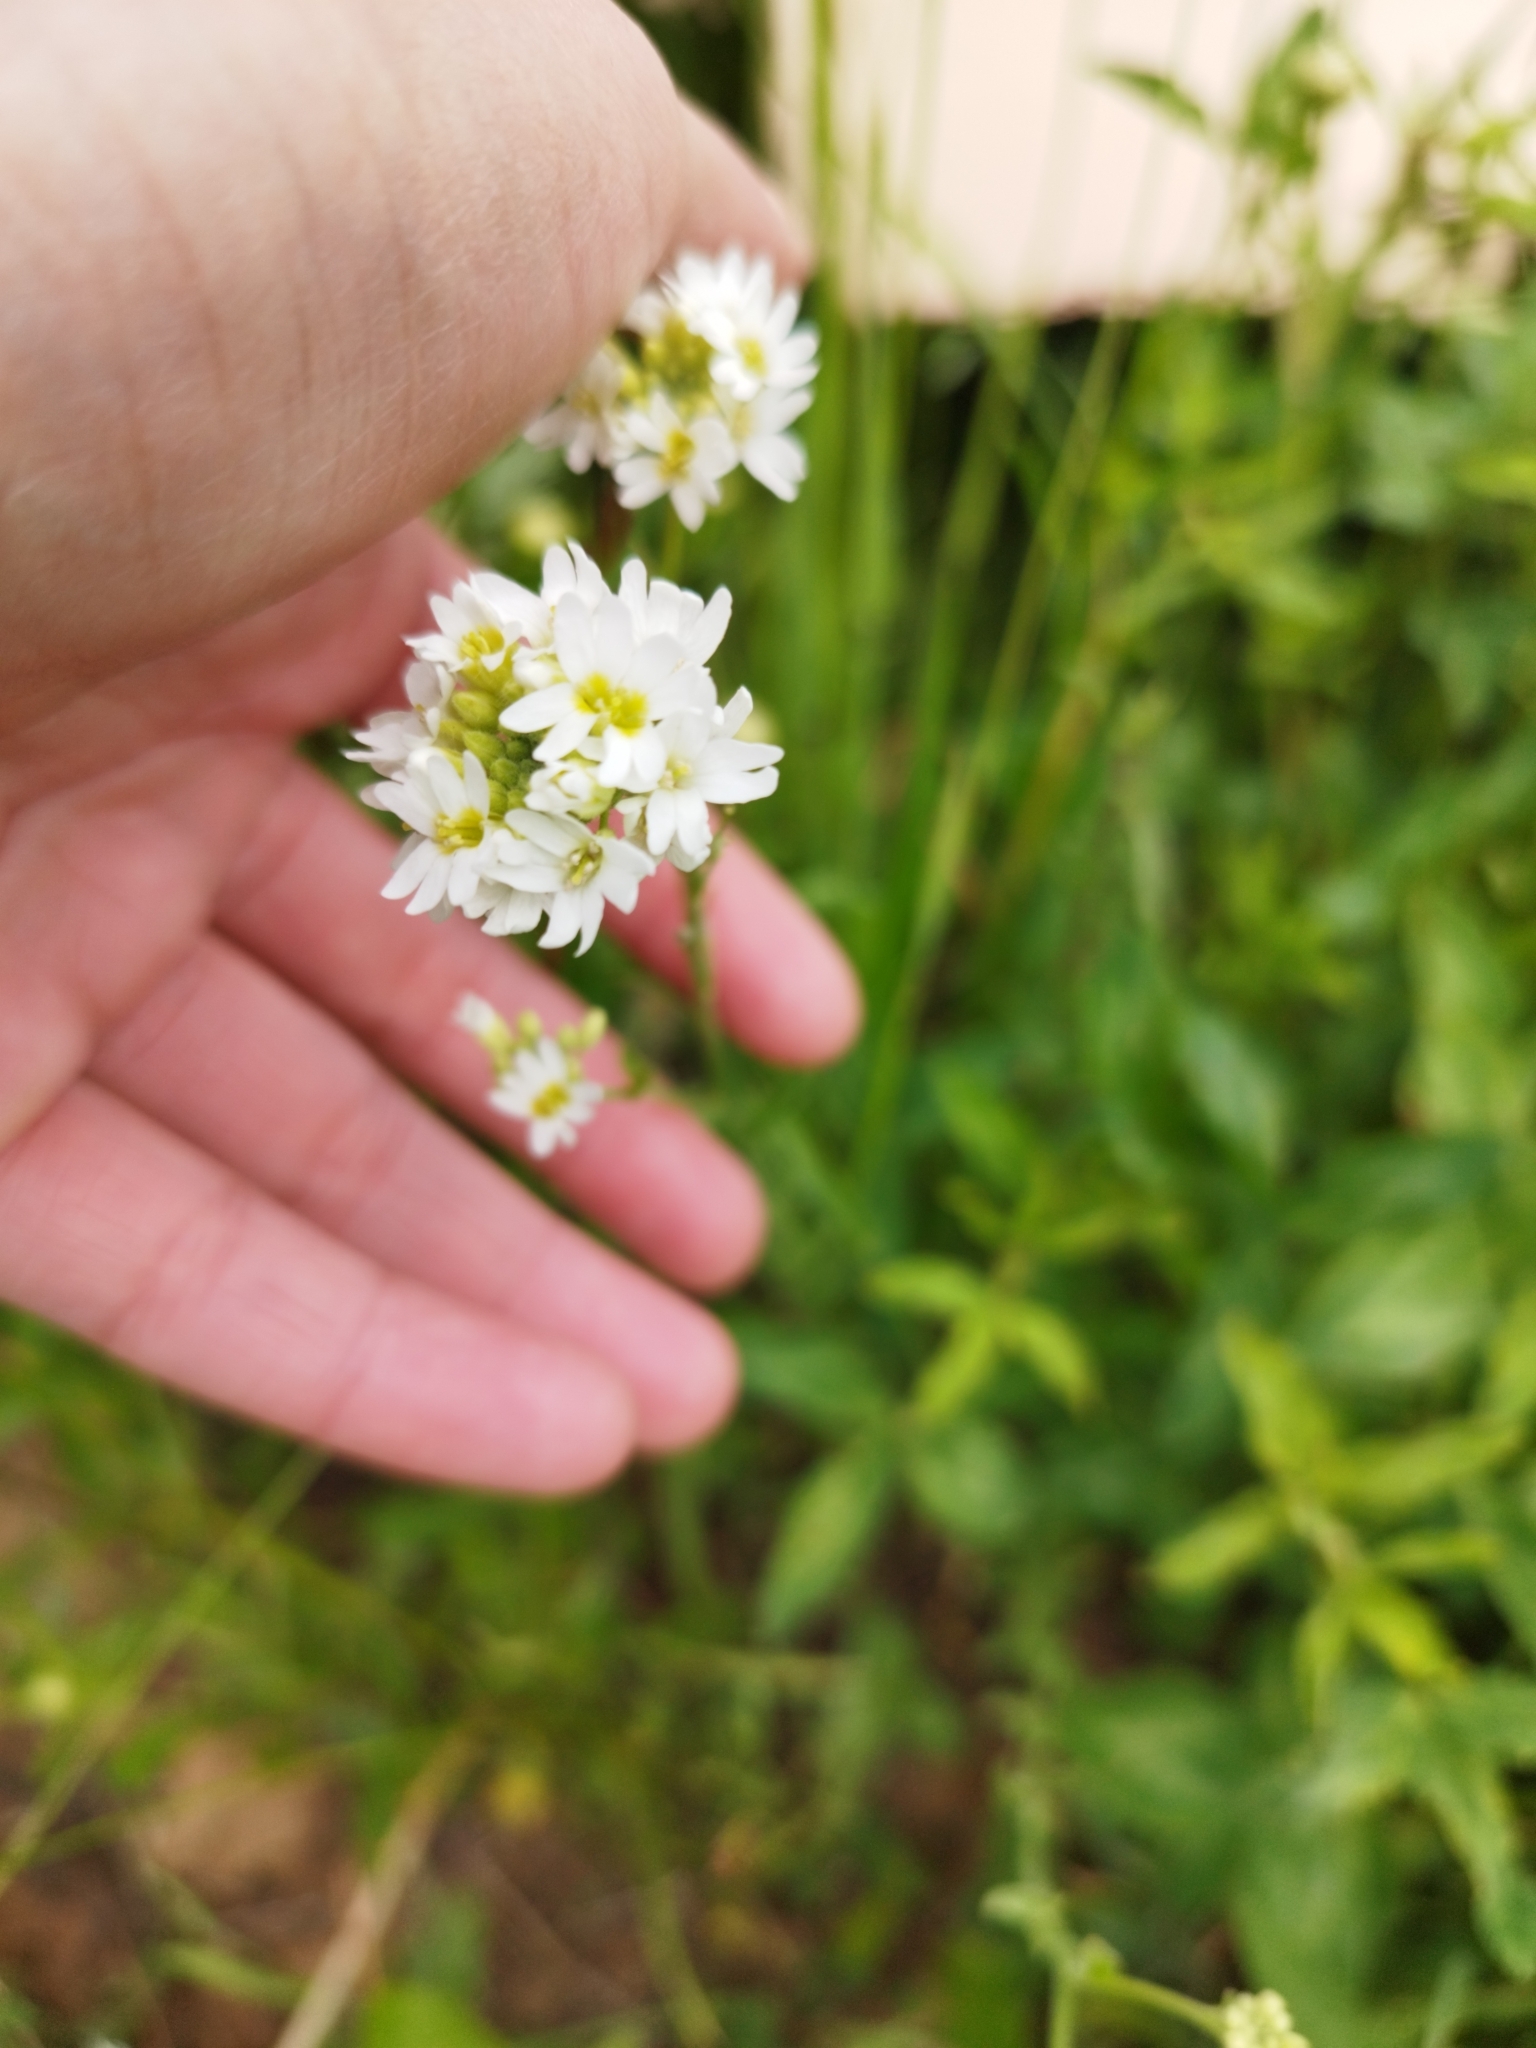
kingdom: Plantae
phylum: Tracheophyta
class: Magnoliopsida
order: Brassicales
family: Brassicaceae
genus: Berteroa
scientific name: Berteroa incana
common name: Hoary alison
